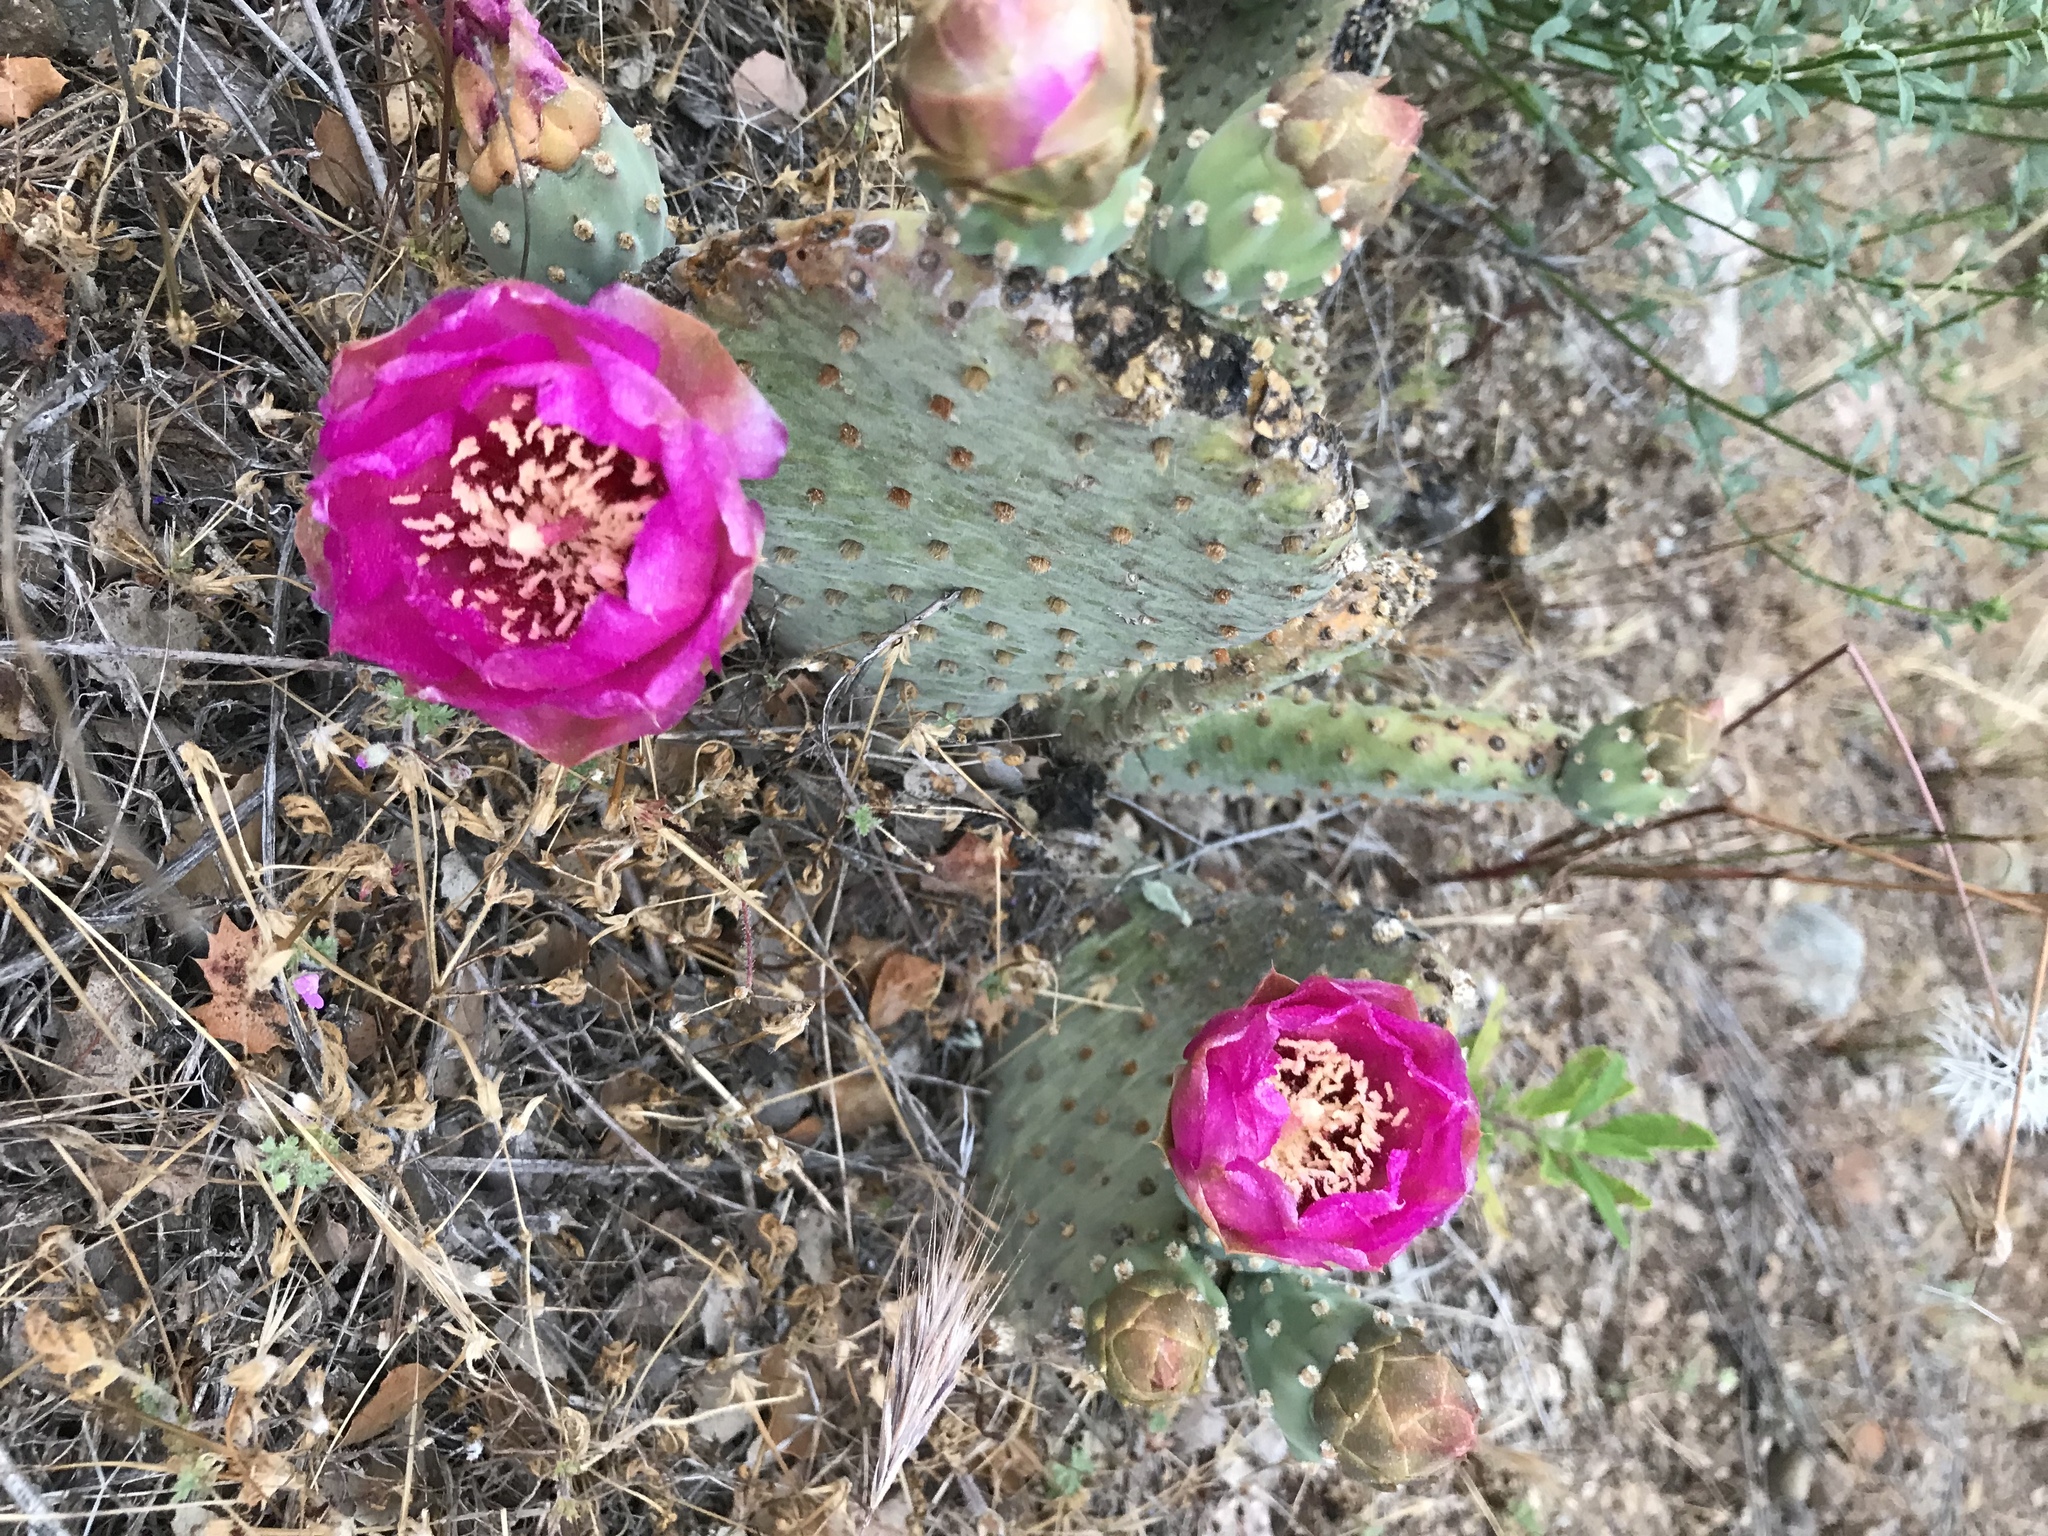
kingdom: Plantae
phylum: Tracheophyta
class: Magnoliopsida
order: Caryophyllales
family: Cactaceae
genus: Opuntia
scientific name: Opuntia basilaris
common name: Beavertail prickly-pear
